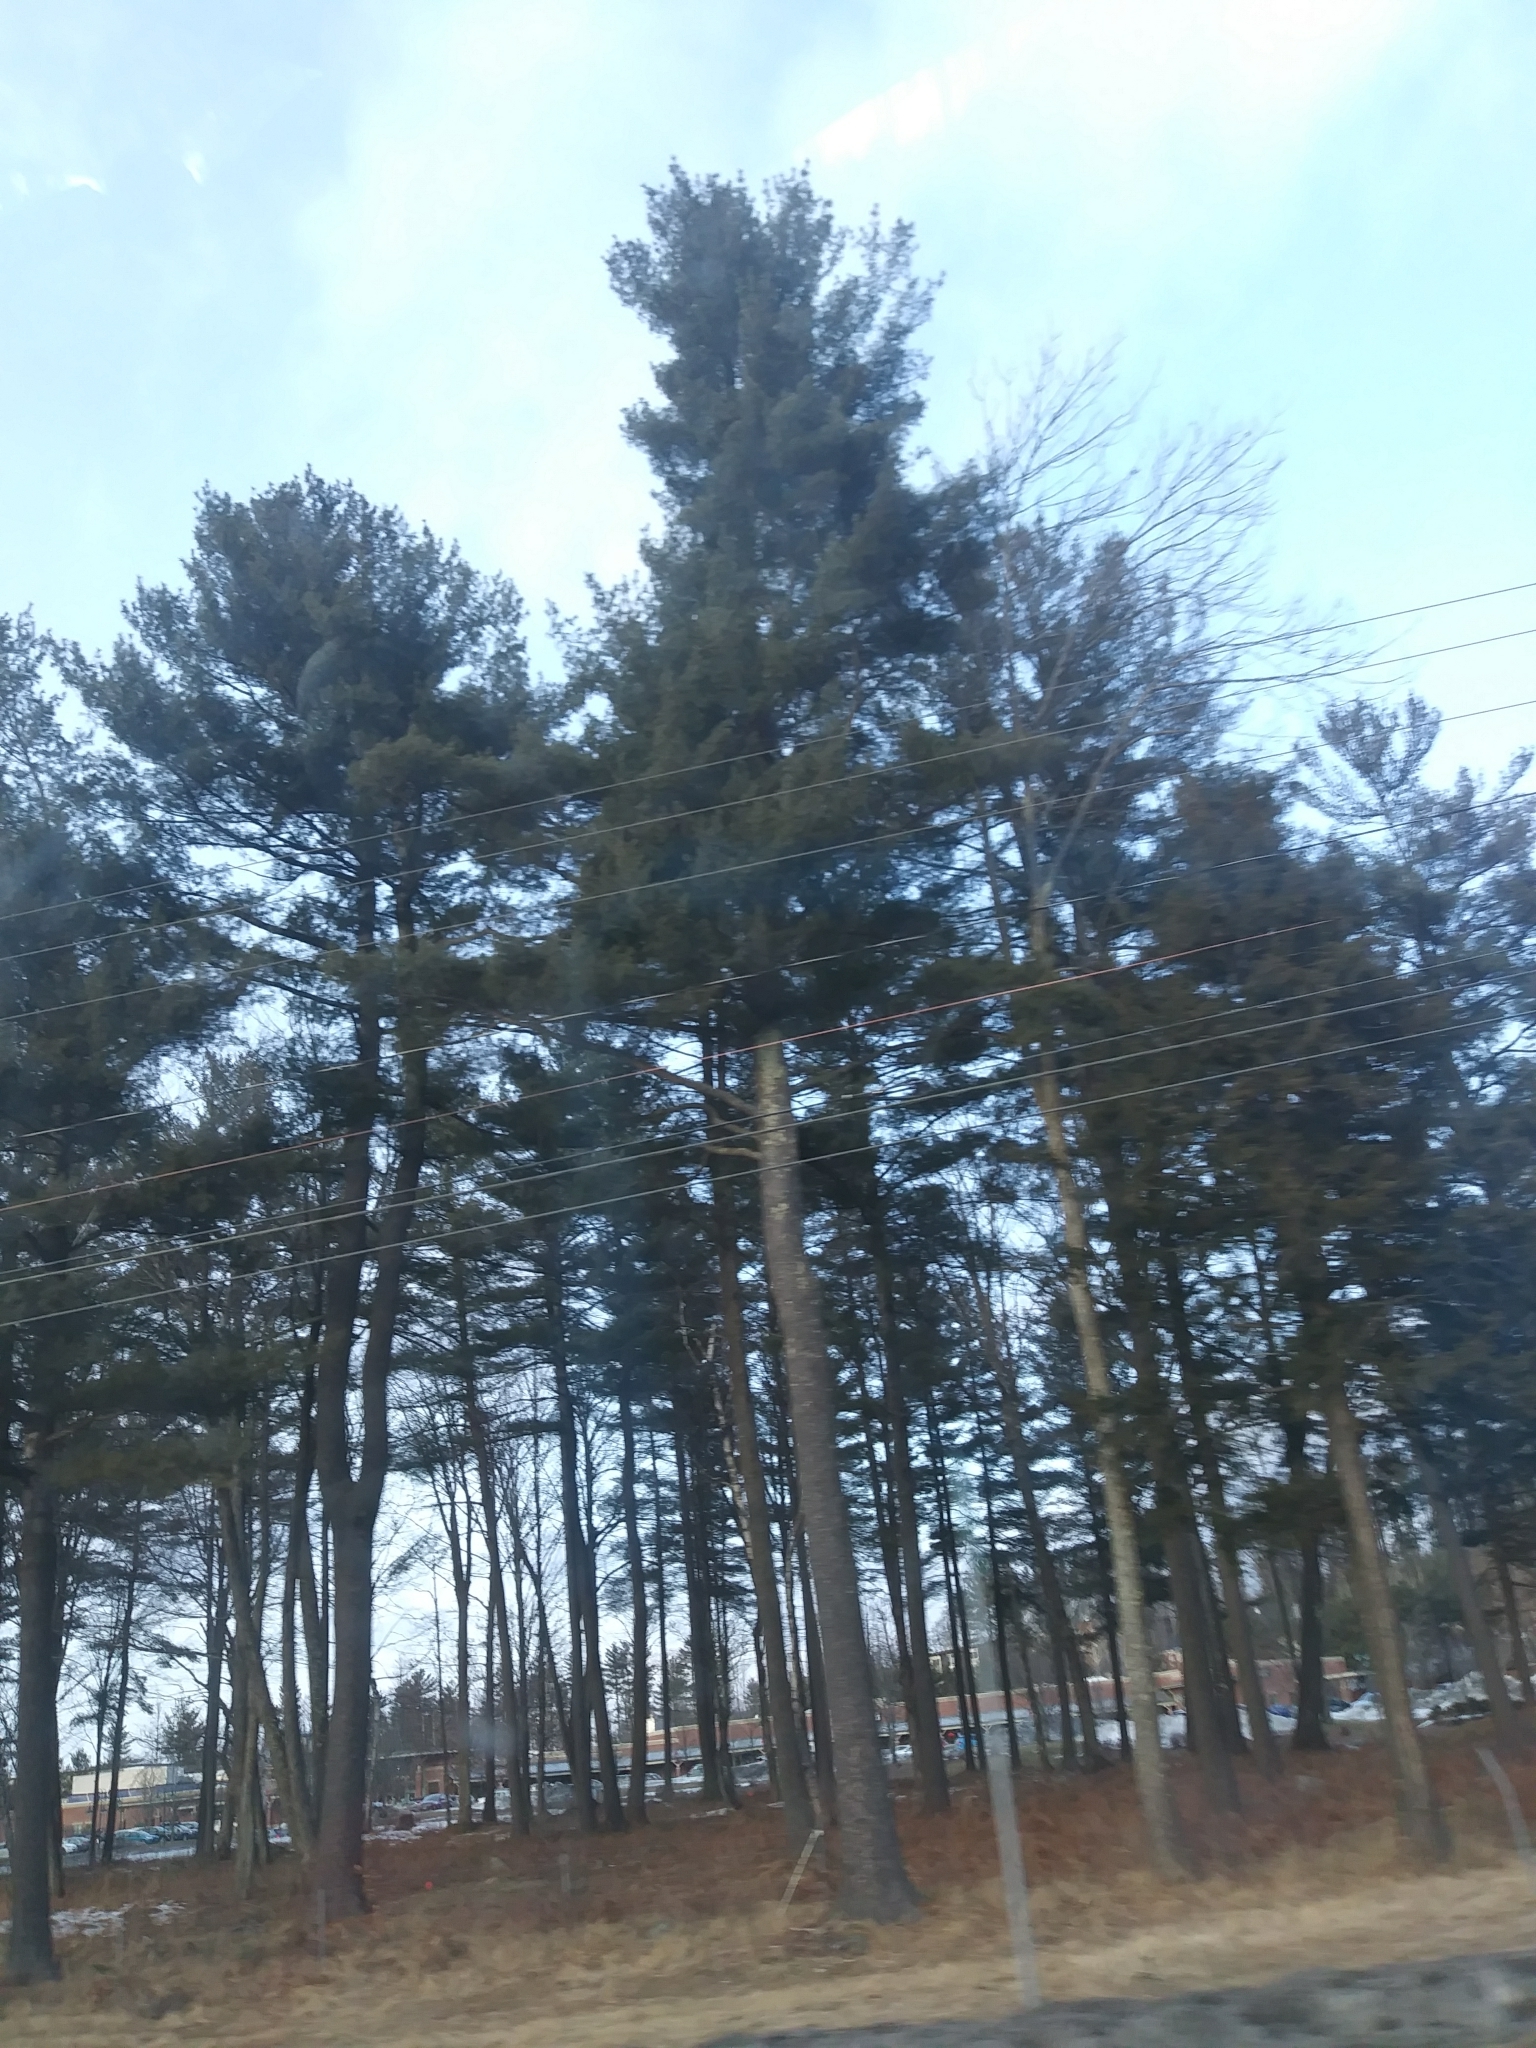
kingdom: Plantae
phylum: Tracheophyta
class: Pinopsida
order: Pinales
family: Pinaceae
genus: Pinus
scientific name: Pinus strobus
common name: Weymouth pine
